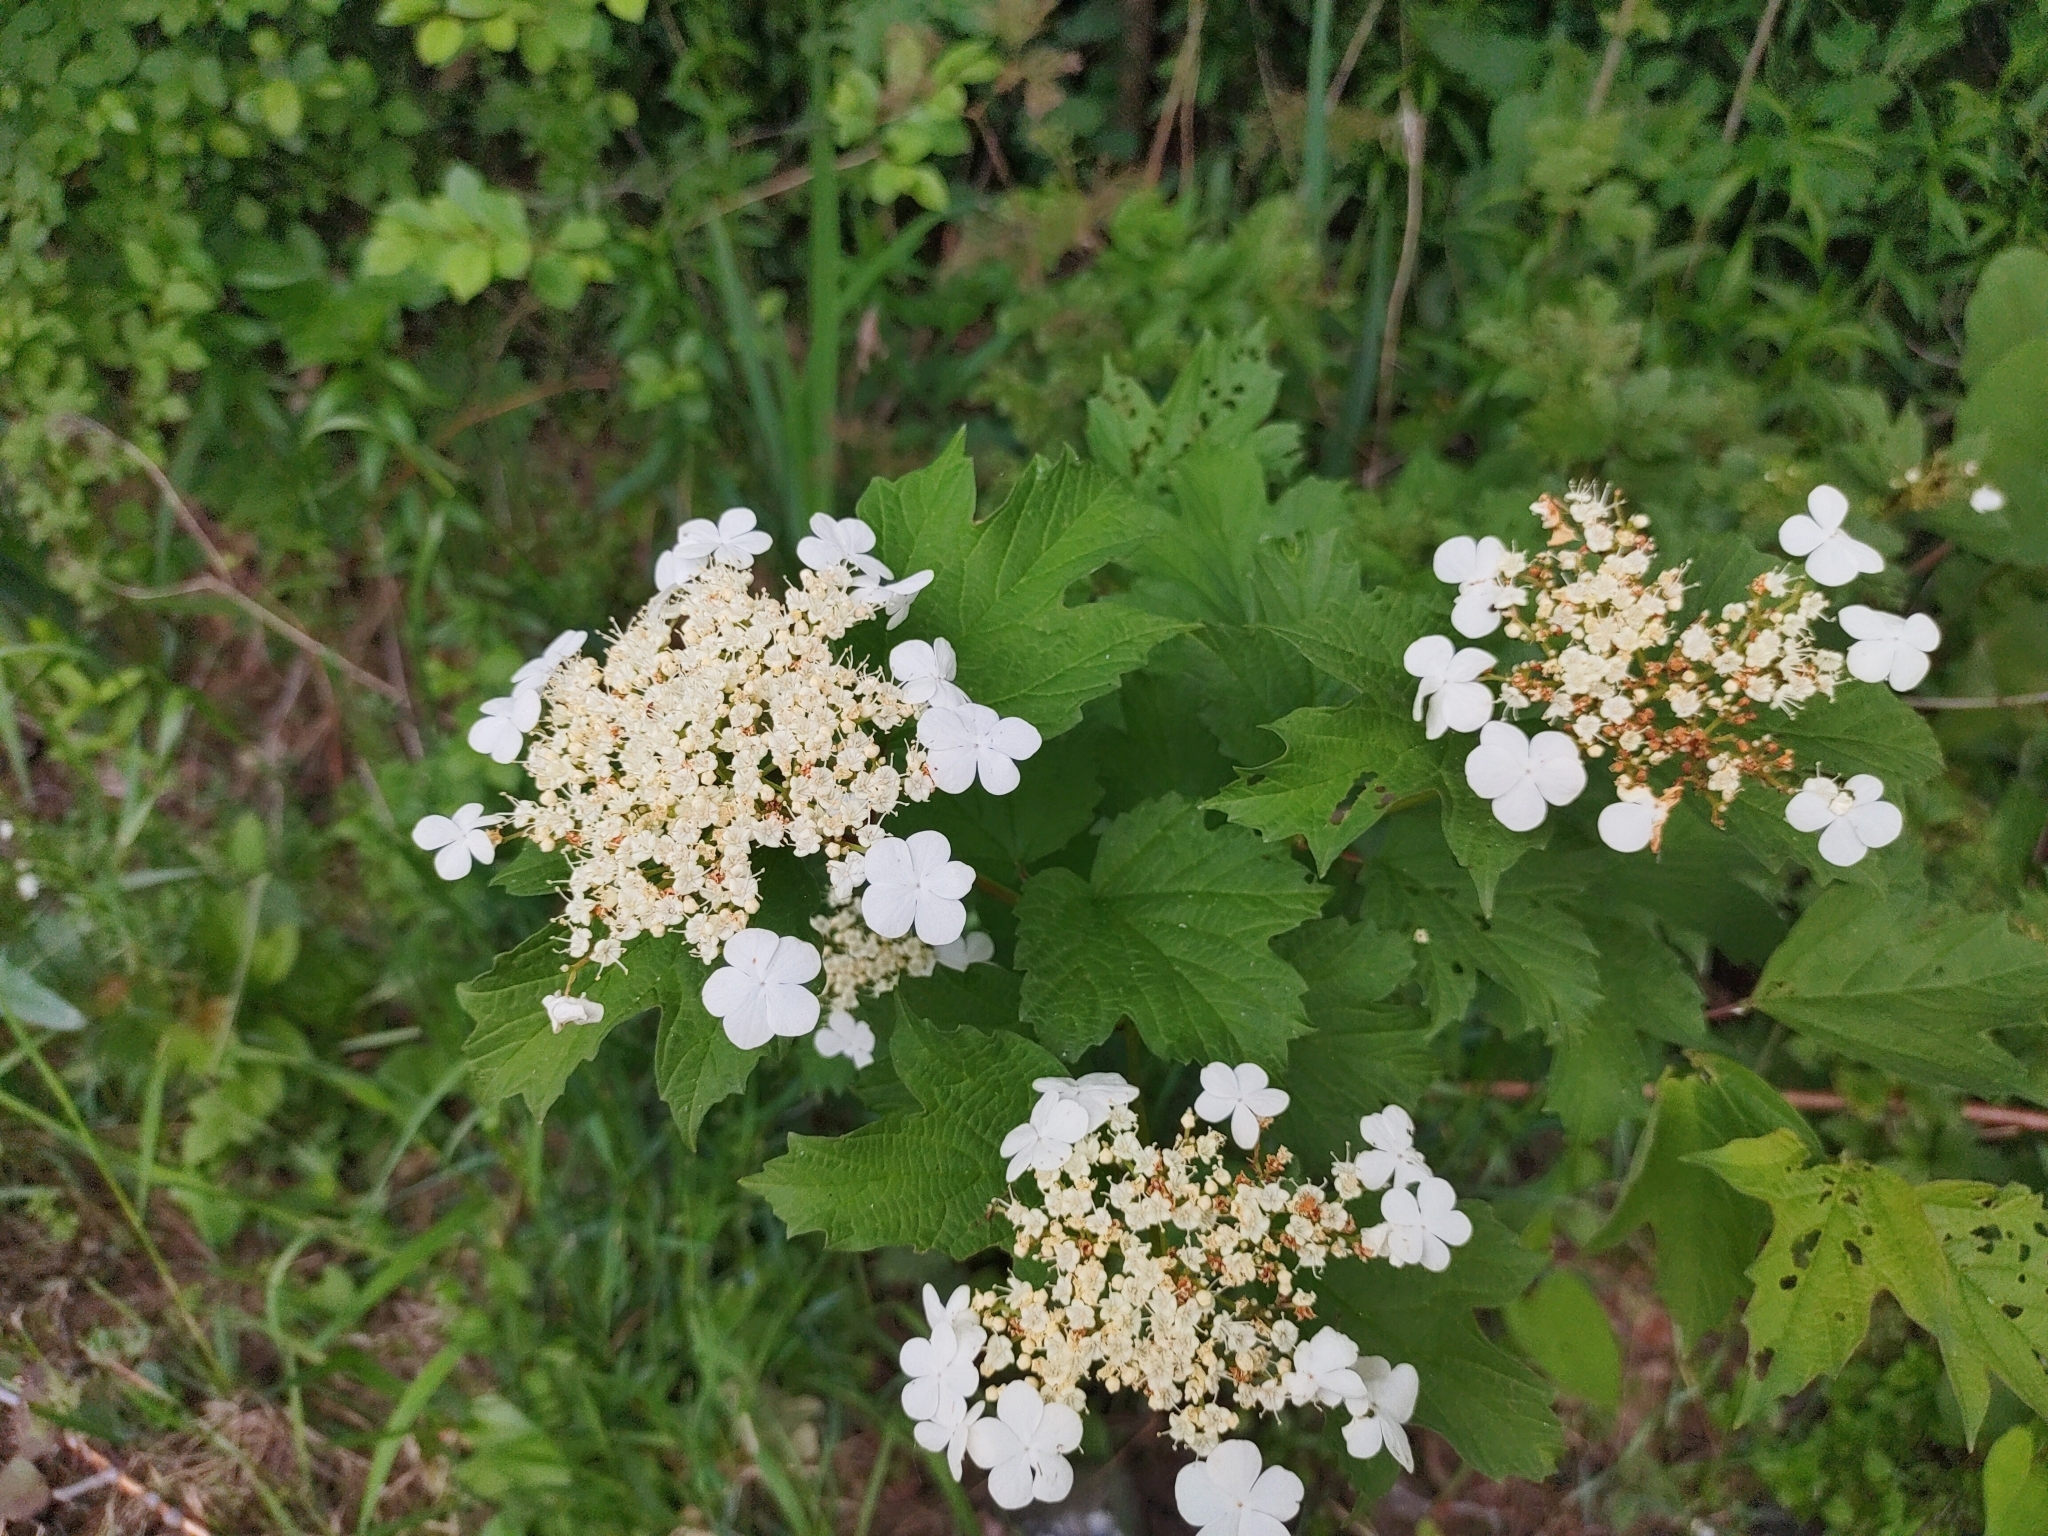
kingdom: Plantae
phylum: Tracheophyta
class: Magnoliopsida
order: Dipsacales
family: Viburnaceae
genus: Viburnum
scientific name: Viburnum opulus
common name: Guelder-rose
